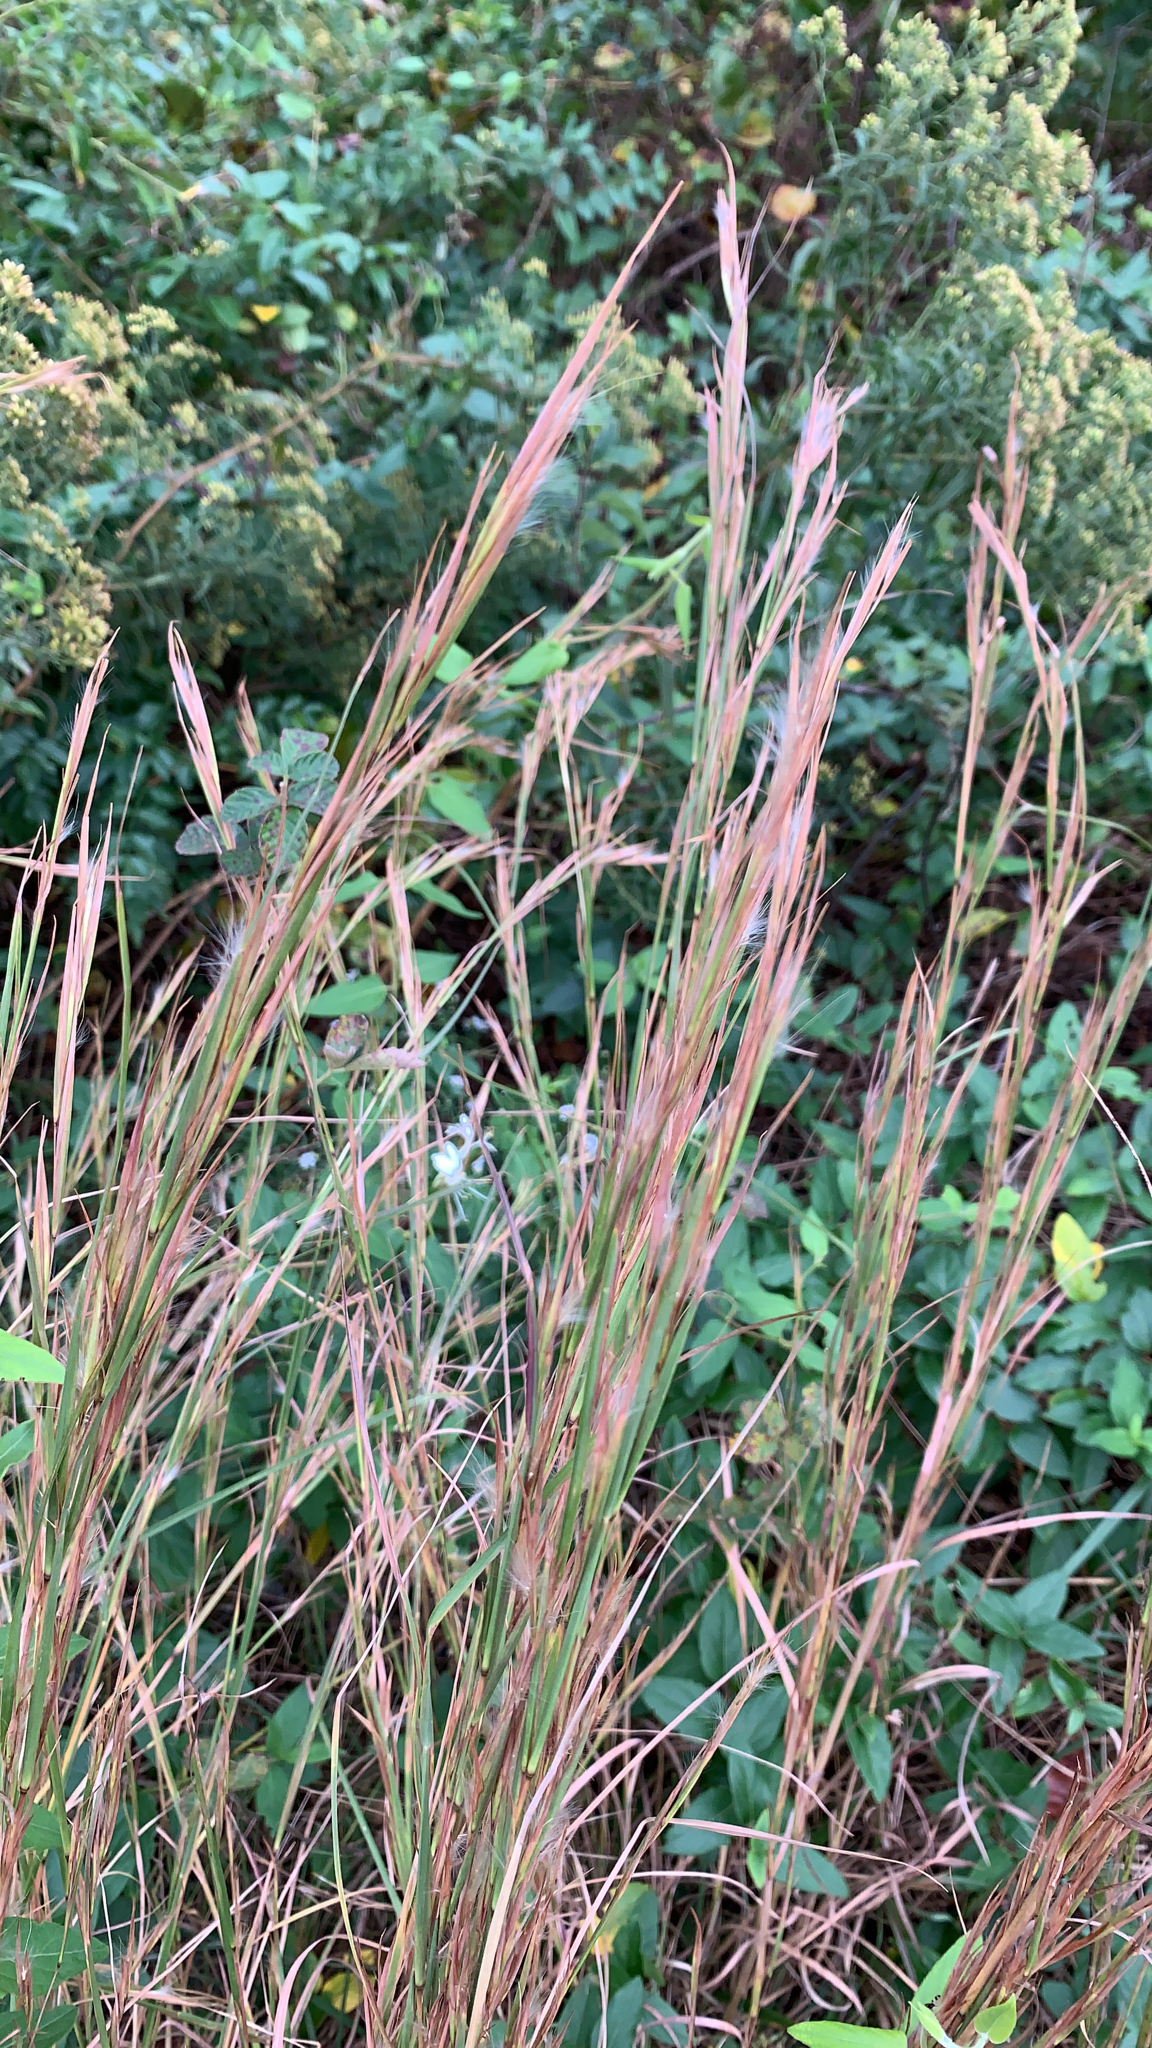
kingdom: Plantae
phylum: Tracheophyta
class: Liliopsida
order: Poales
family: Poaceae
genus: Andropogon
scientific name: Andropogon virginicus
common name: Broomsedge bluestem
